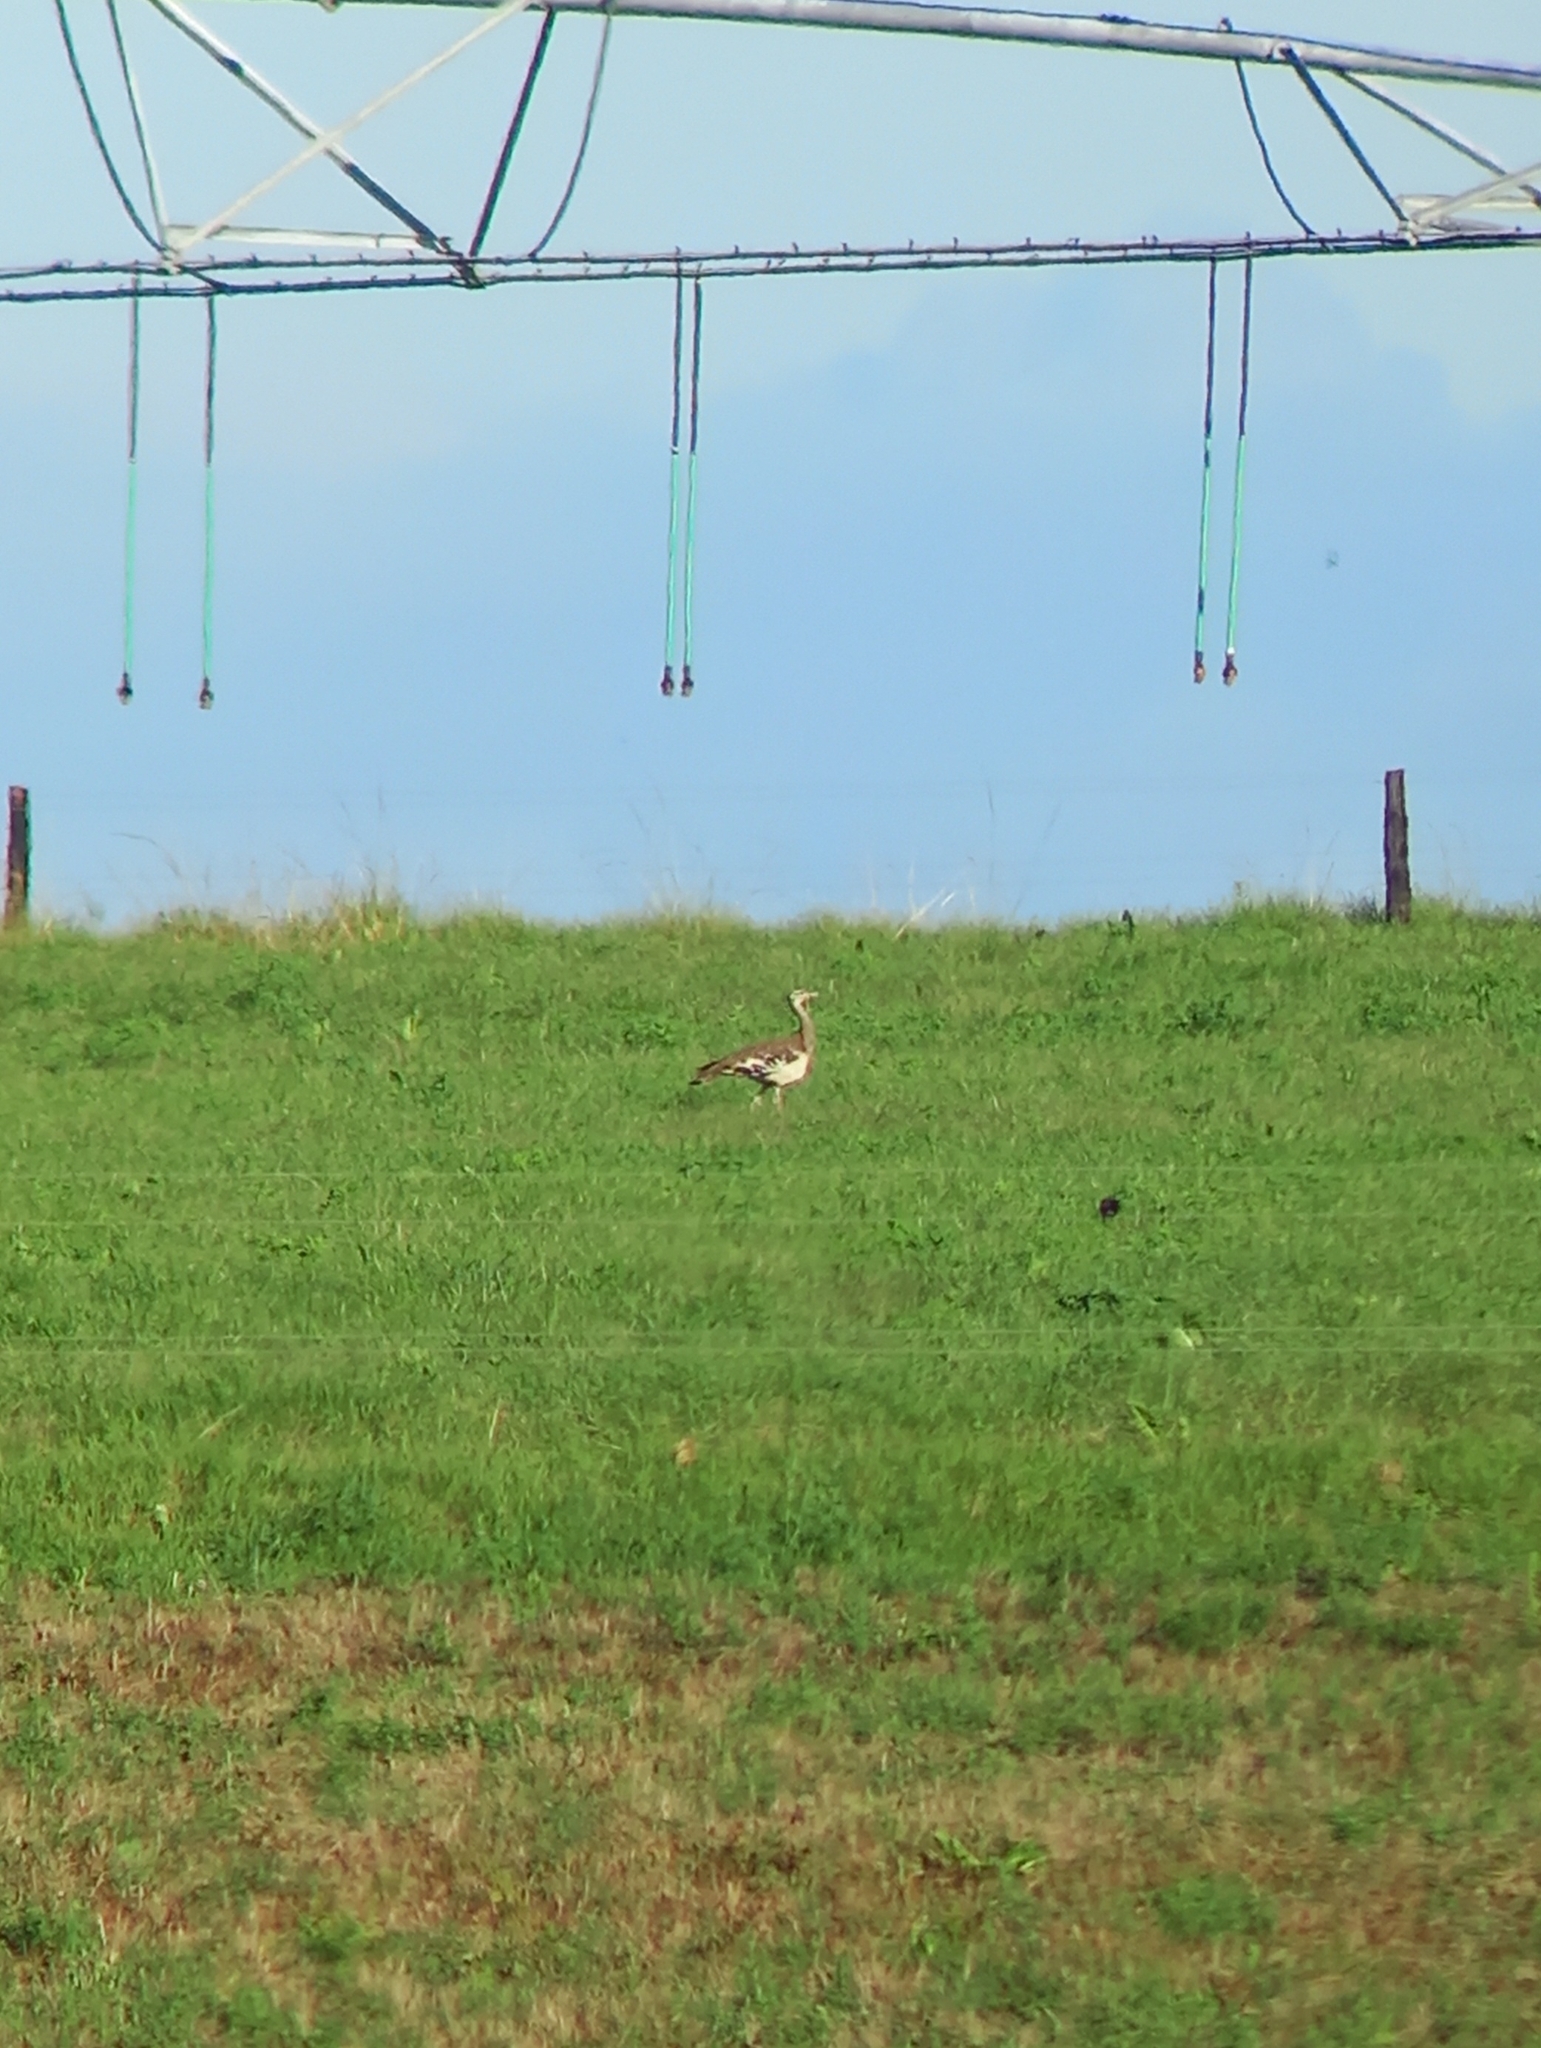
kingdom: Animalia
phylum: Chordata
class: Aves
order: Otidiformes
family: Otididae
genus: Neotis
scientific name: Neotis denhami
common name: Denham's bustard
